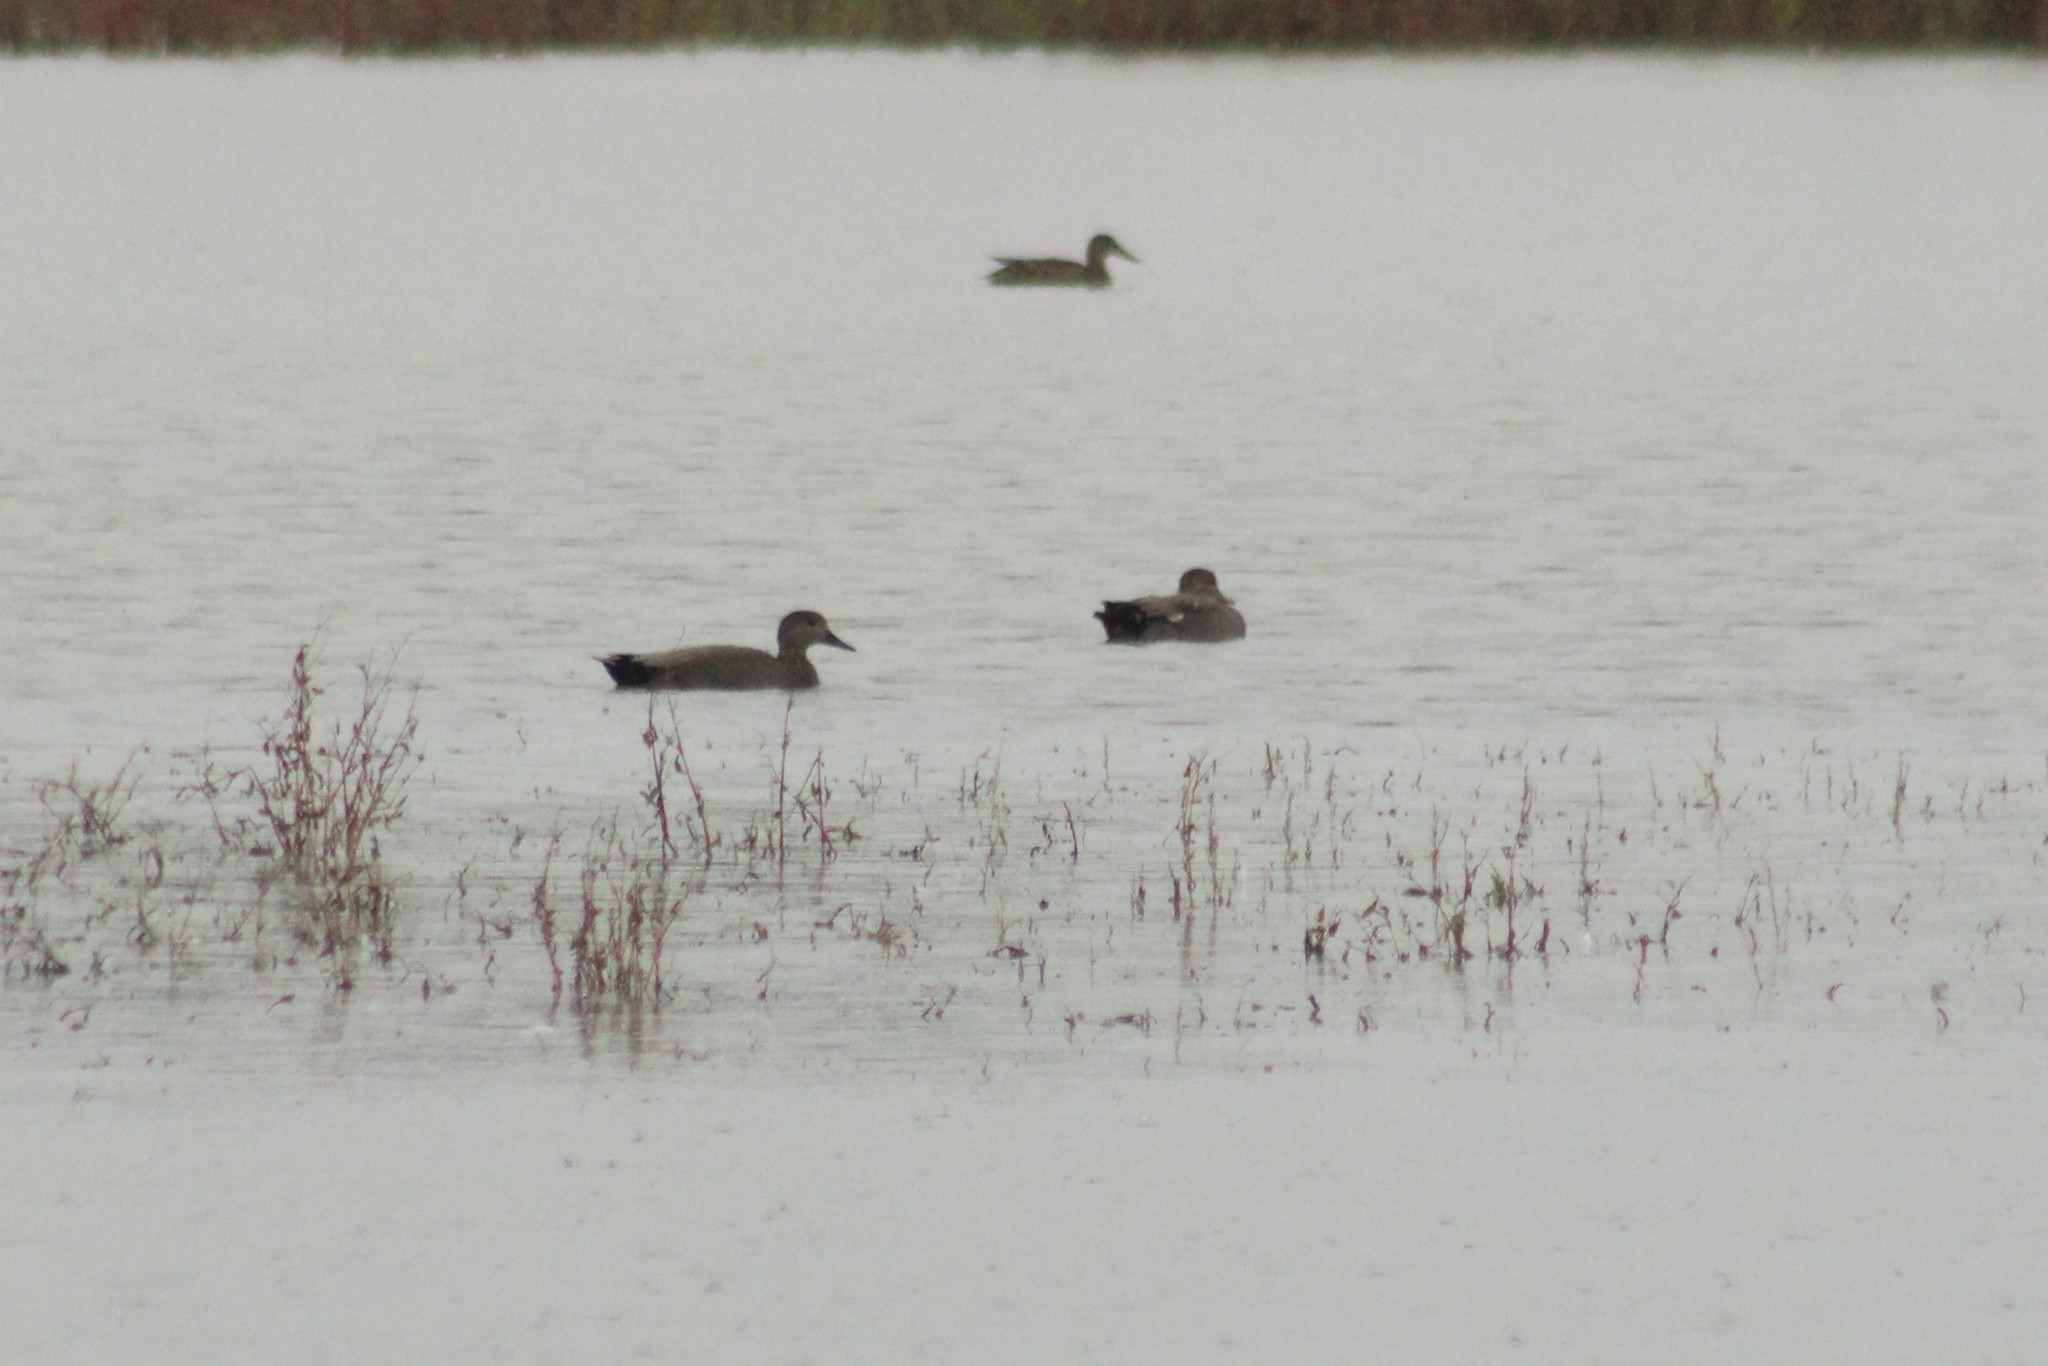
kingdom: Animalia
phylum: Chordata
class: Aves
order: Anseriformes
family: Anatidae
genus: Mareca
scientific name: Mareca strepera
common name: Gadwall
